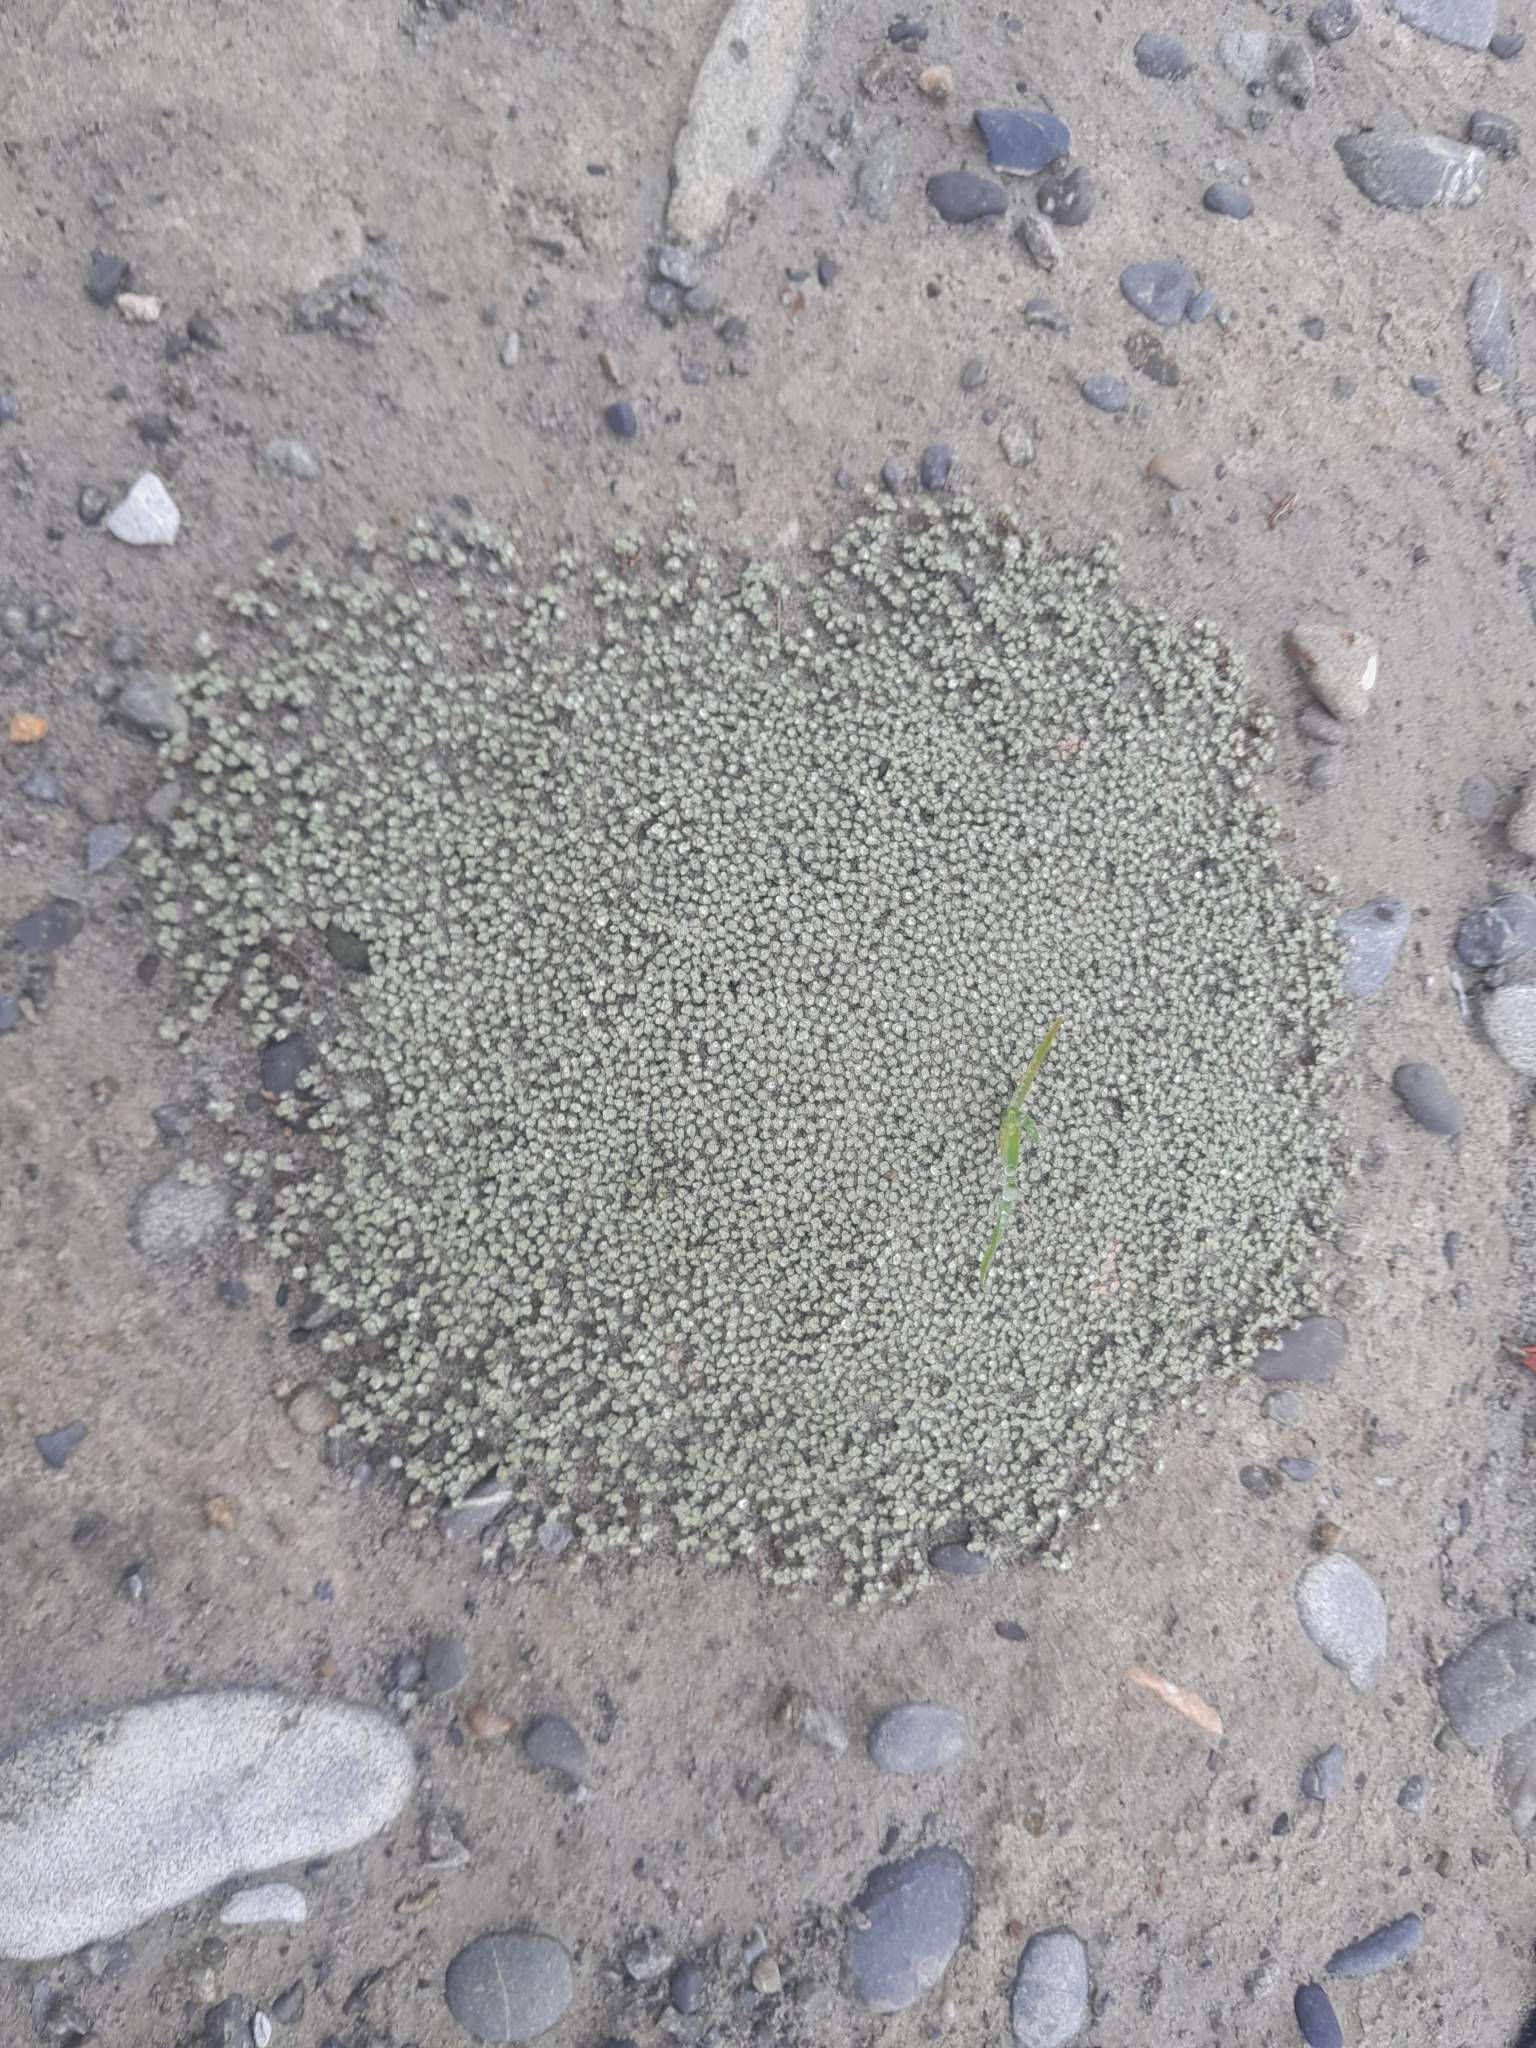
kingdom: Plantae
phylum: Tracheophyta
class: Magnoliopsida
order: Asterales
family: Asteraceae
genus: Raoulia
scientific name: Raoulia australis
